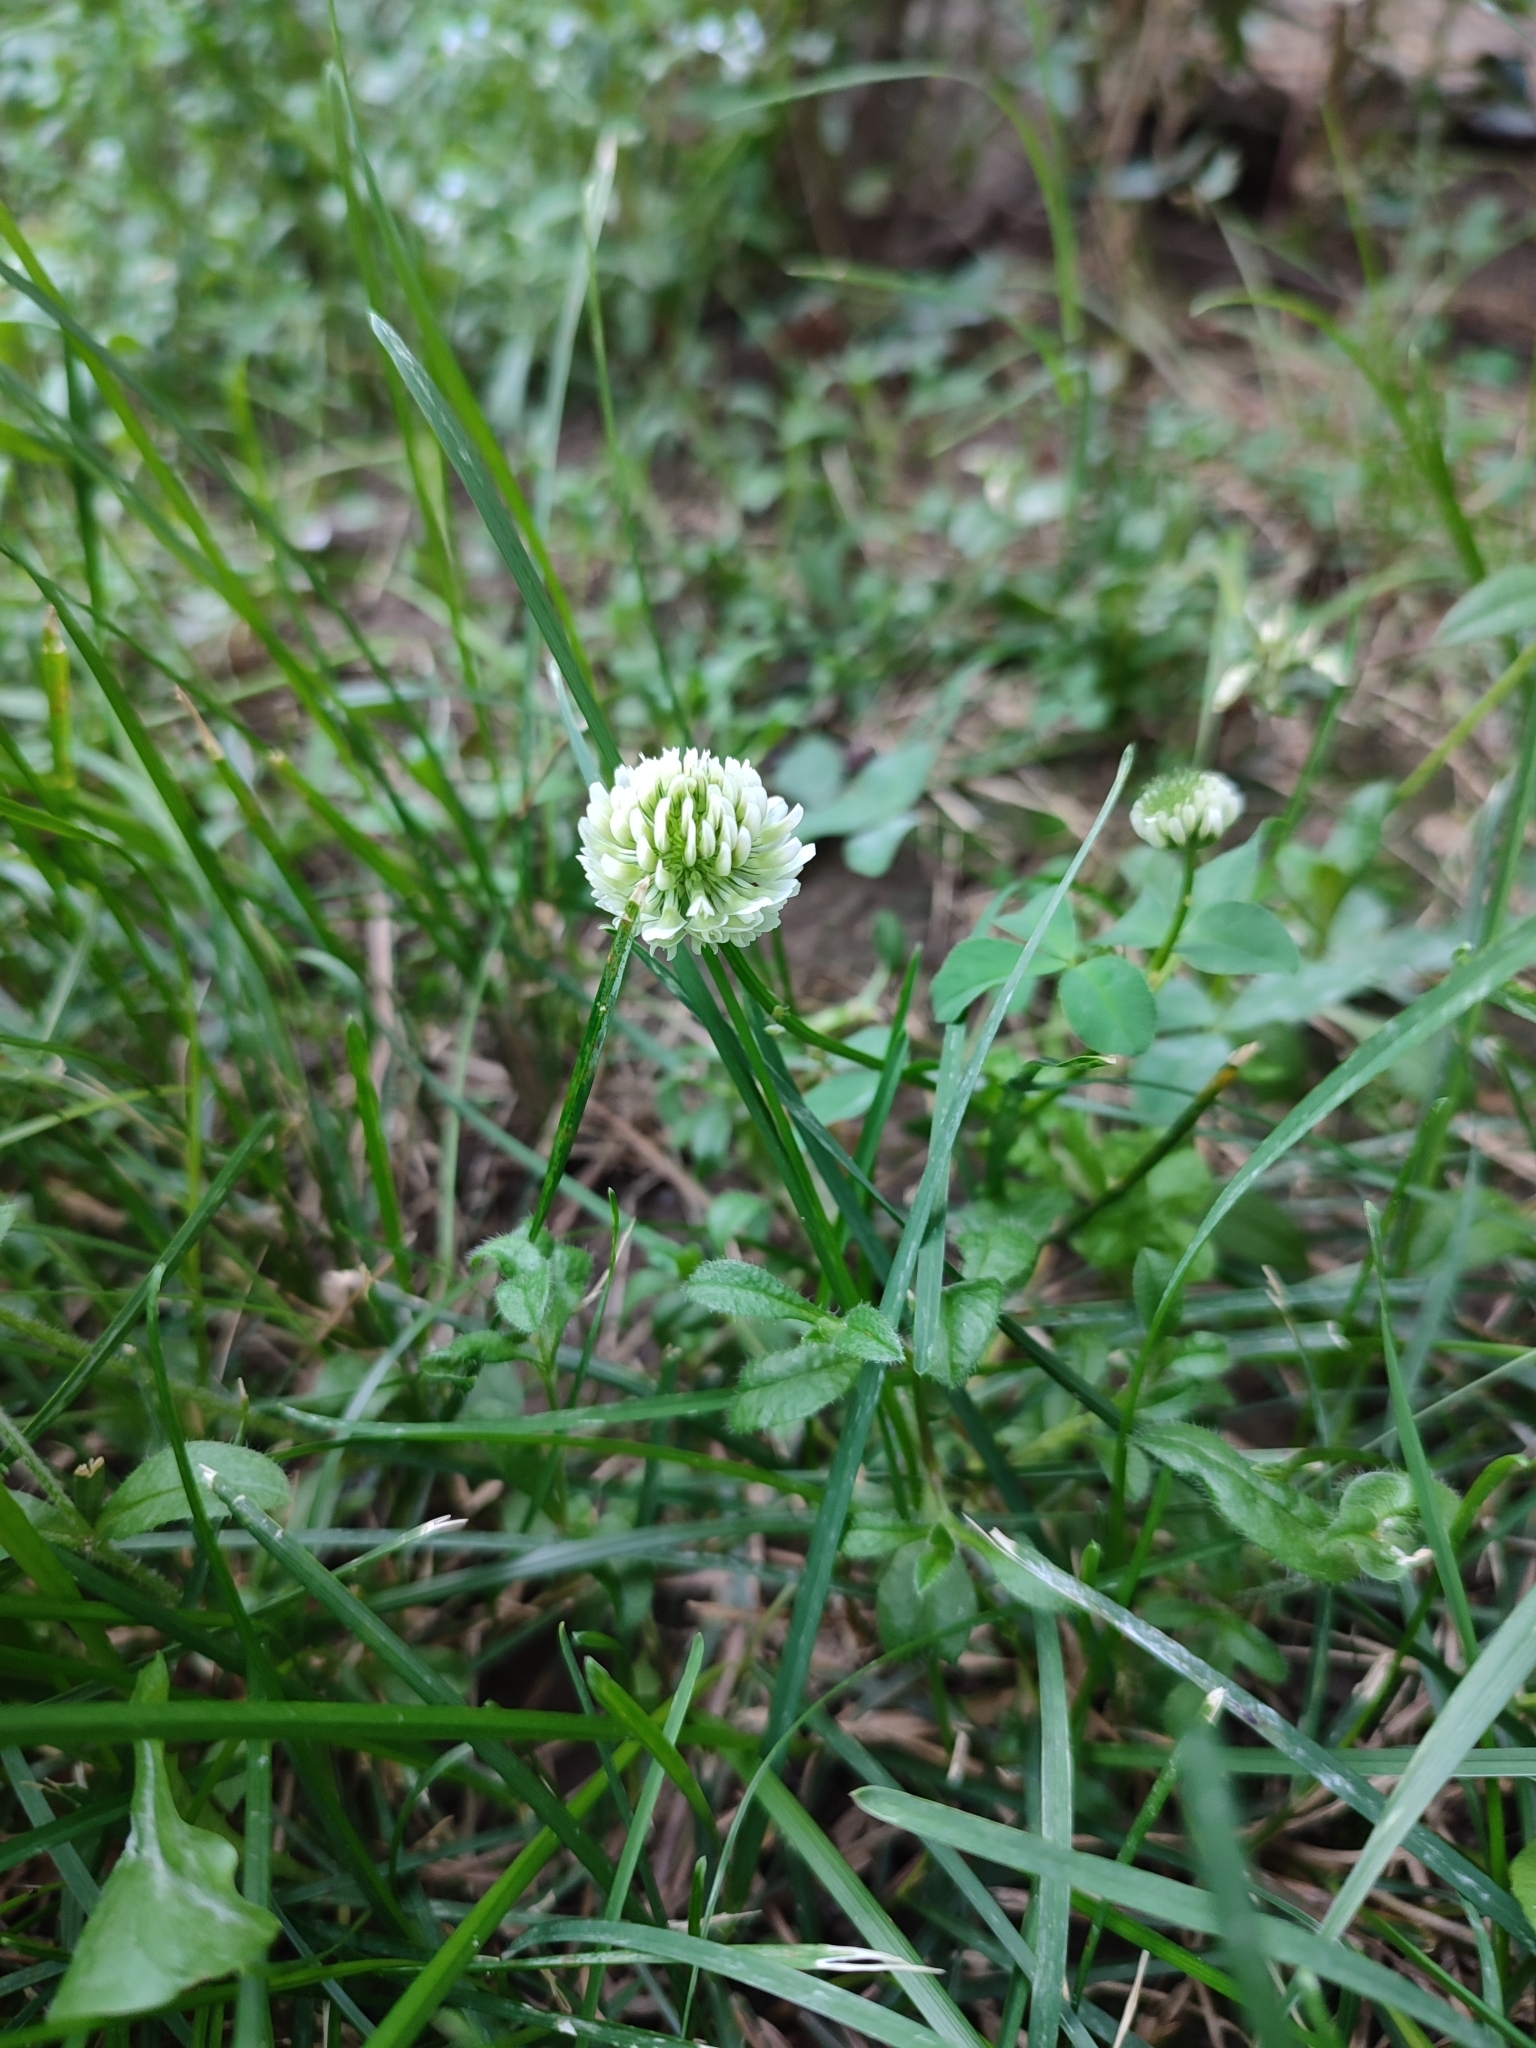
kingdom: Plantae
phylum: Tracheophyta
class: Magnoliopsida
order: Fabales
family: Fabaceae
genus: Trifolium
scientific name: Trifolium repens
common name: White clover
